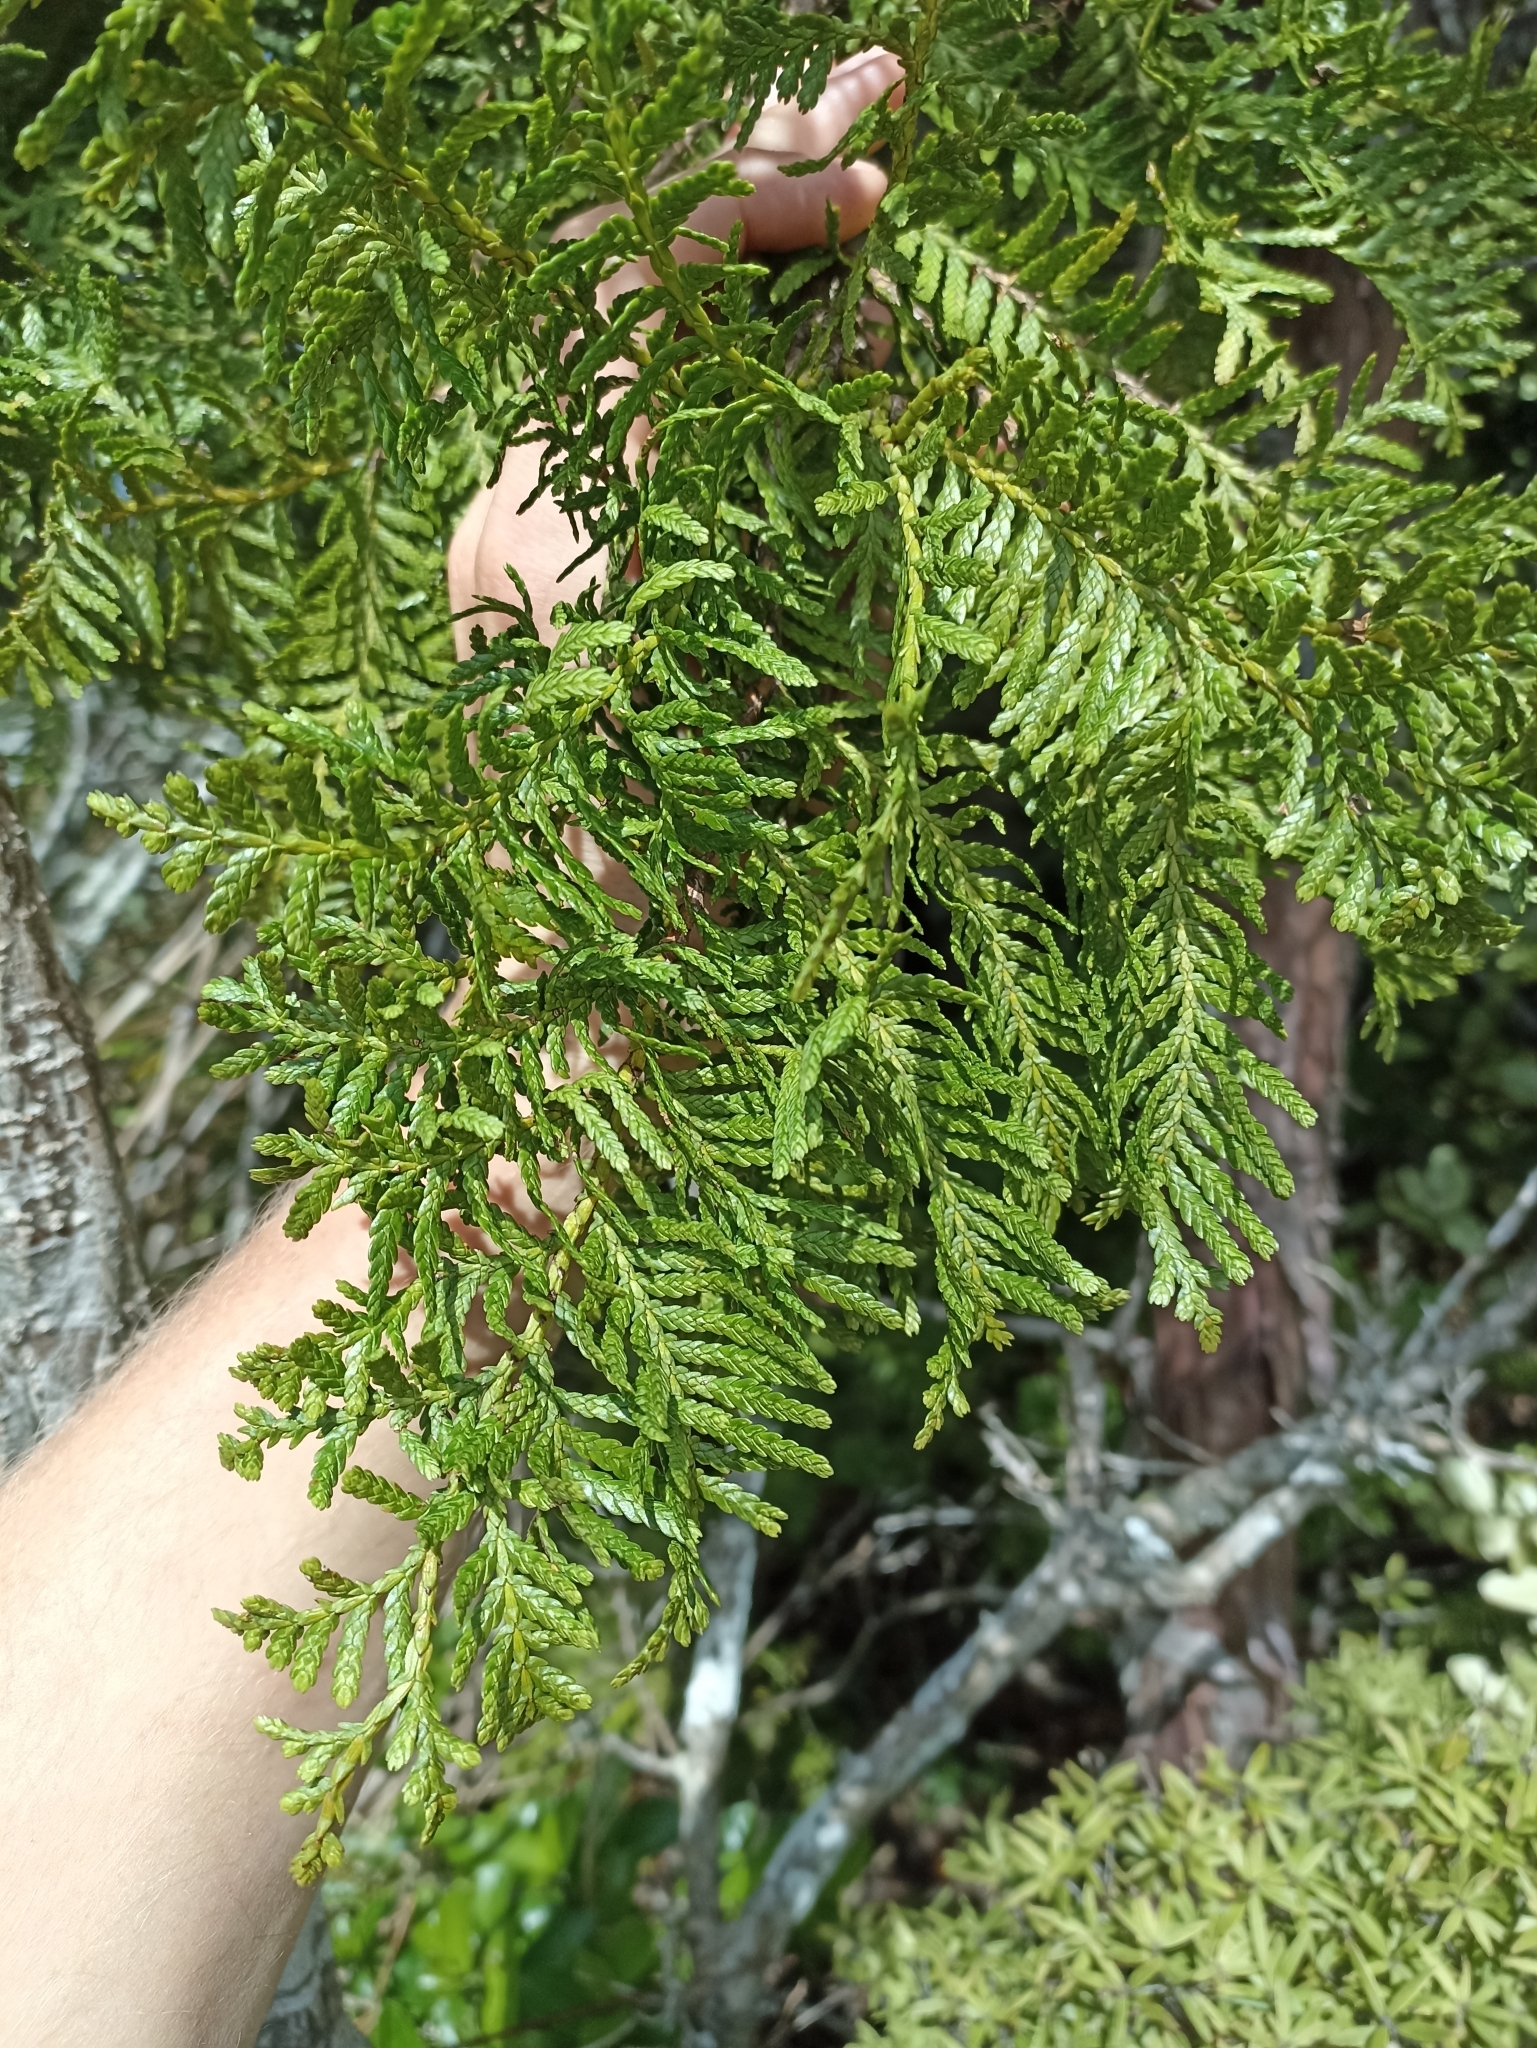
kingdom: Plantae
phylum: Tracheophyta
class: Pinopsida
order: Pinales
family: Cupressaceae
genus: Libocedrus
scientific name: Libocedrus plumosa
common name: New zealand cedar
